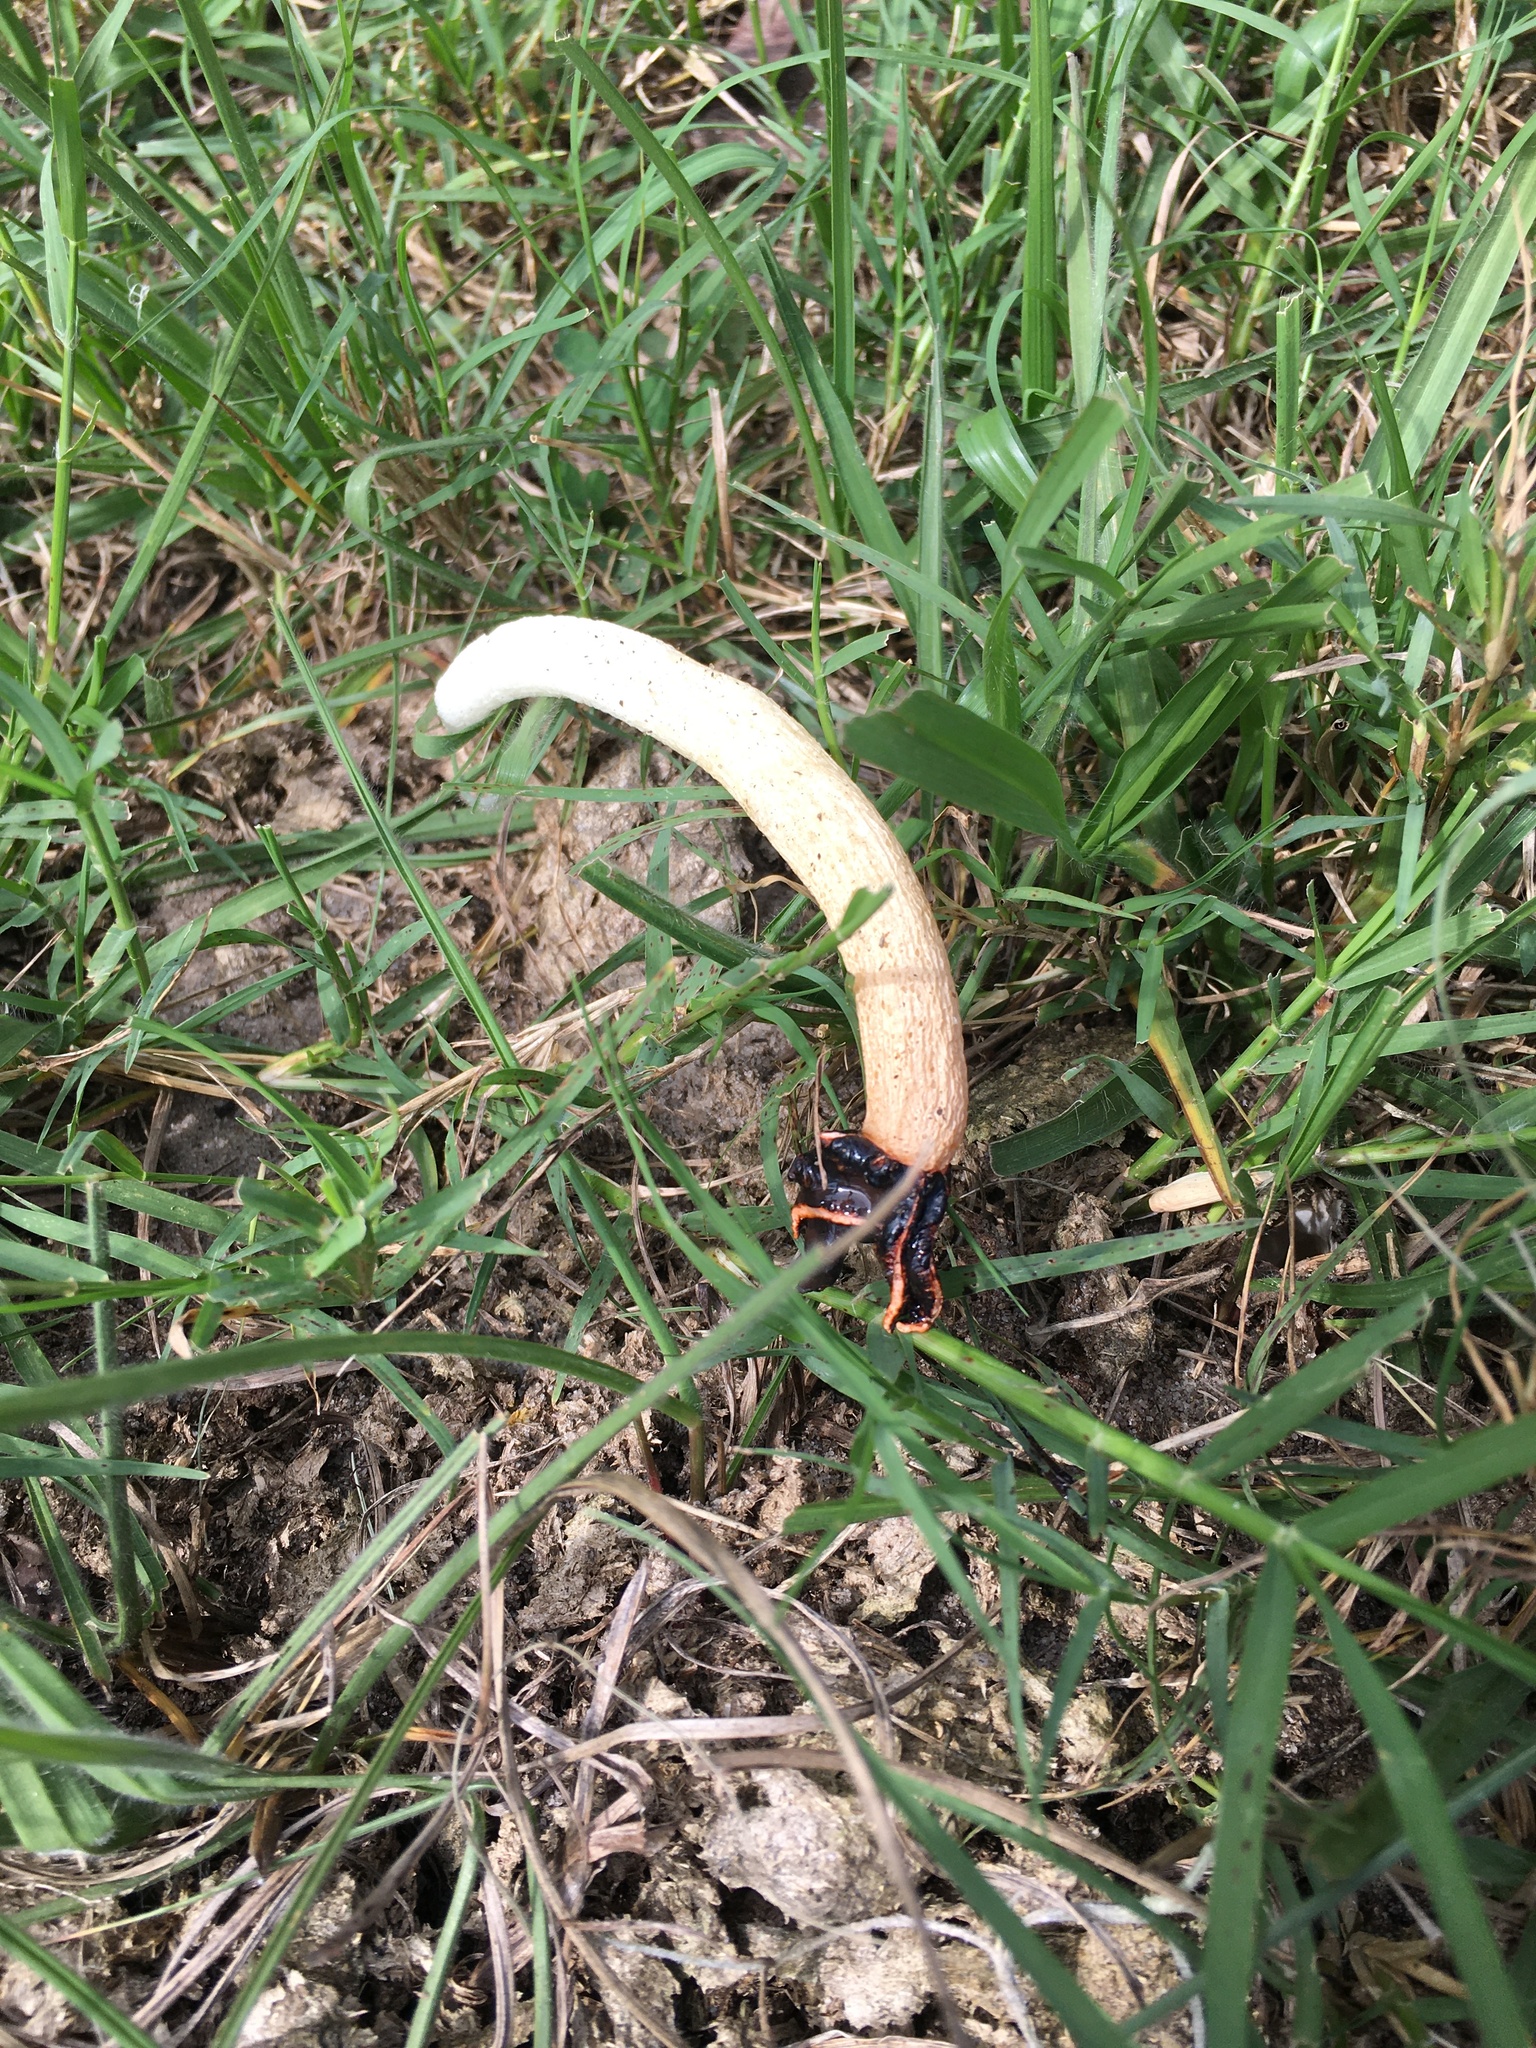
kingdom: Fungi
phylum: Basidiomycota
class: Agaricomycetes
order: Phallales
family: Phallaceae
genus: Lysurus
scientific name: Lysurus cruciatus
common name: Lizard's claw
